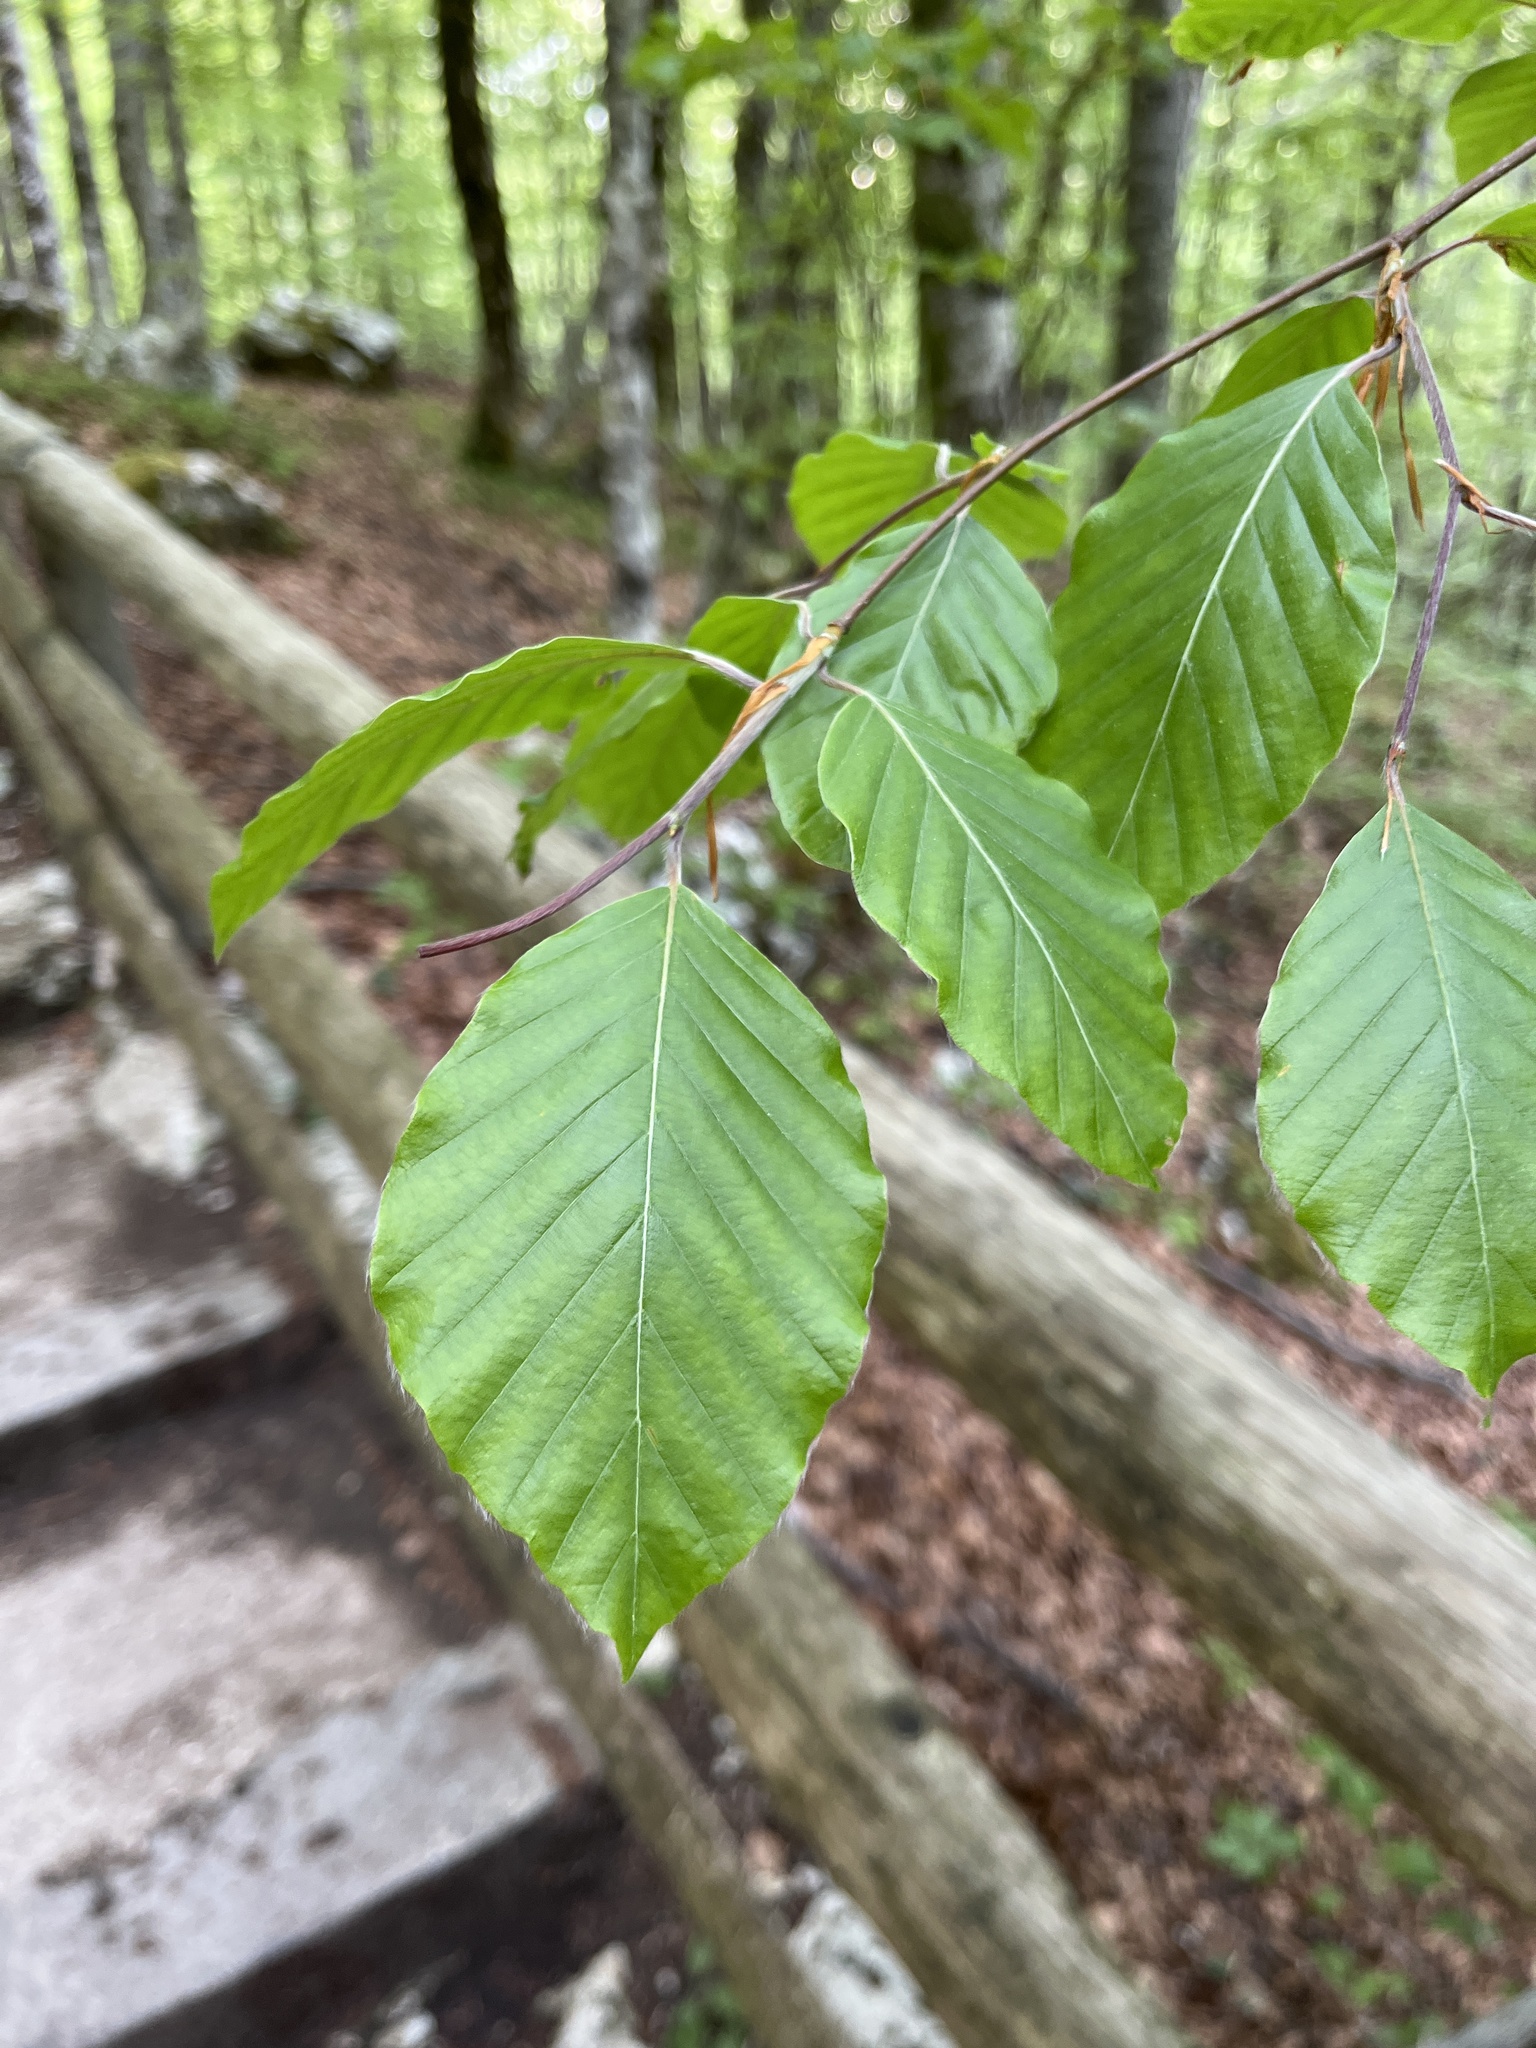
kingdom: Plantae
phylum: Tracheophyta
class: Magnoliopsida
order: Fagales
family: Fagaceae
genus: Fagus
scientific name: Fagus sylvatica
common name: Beech
